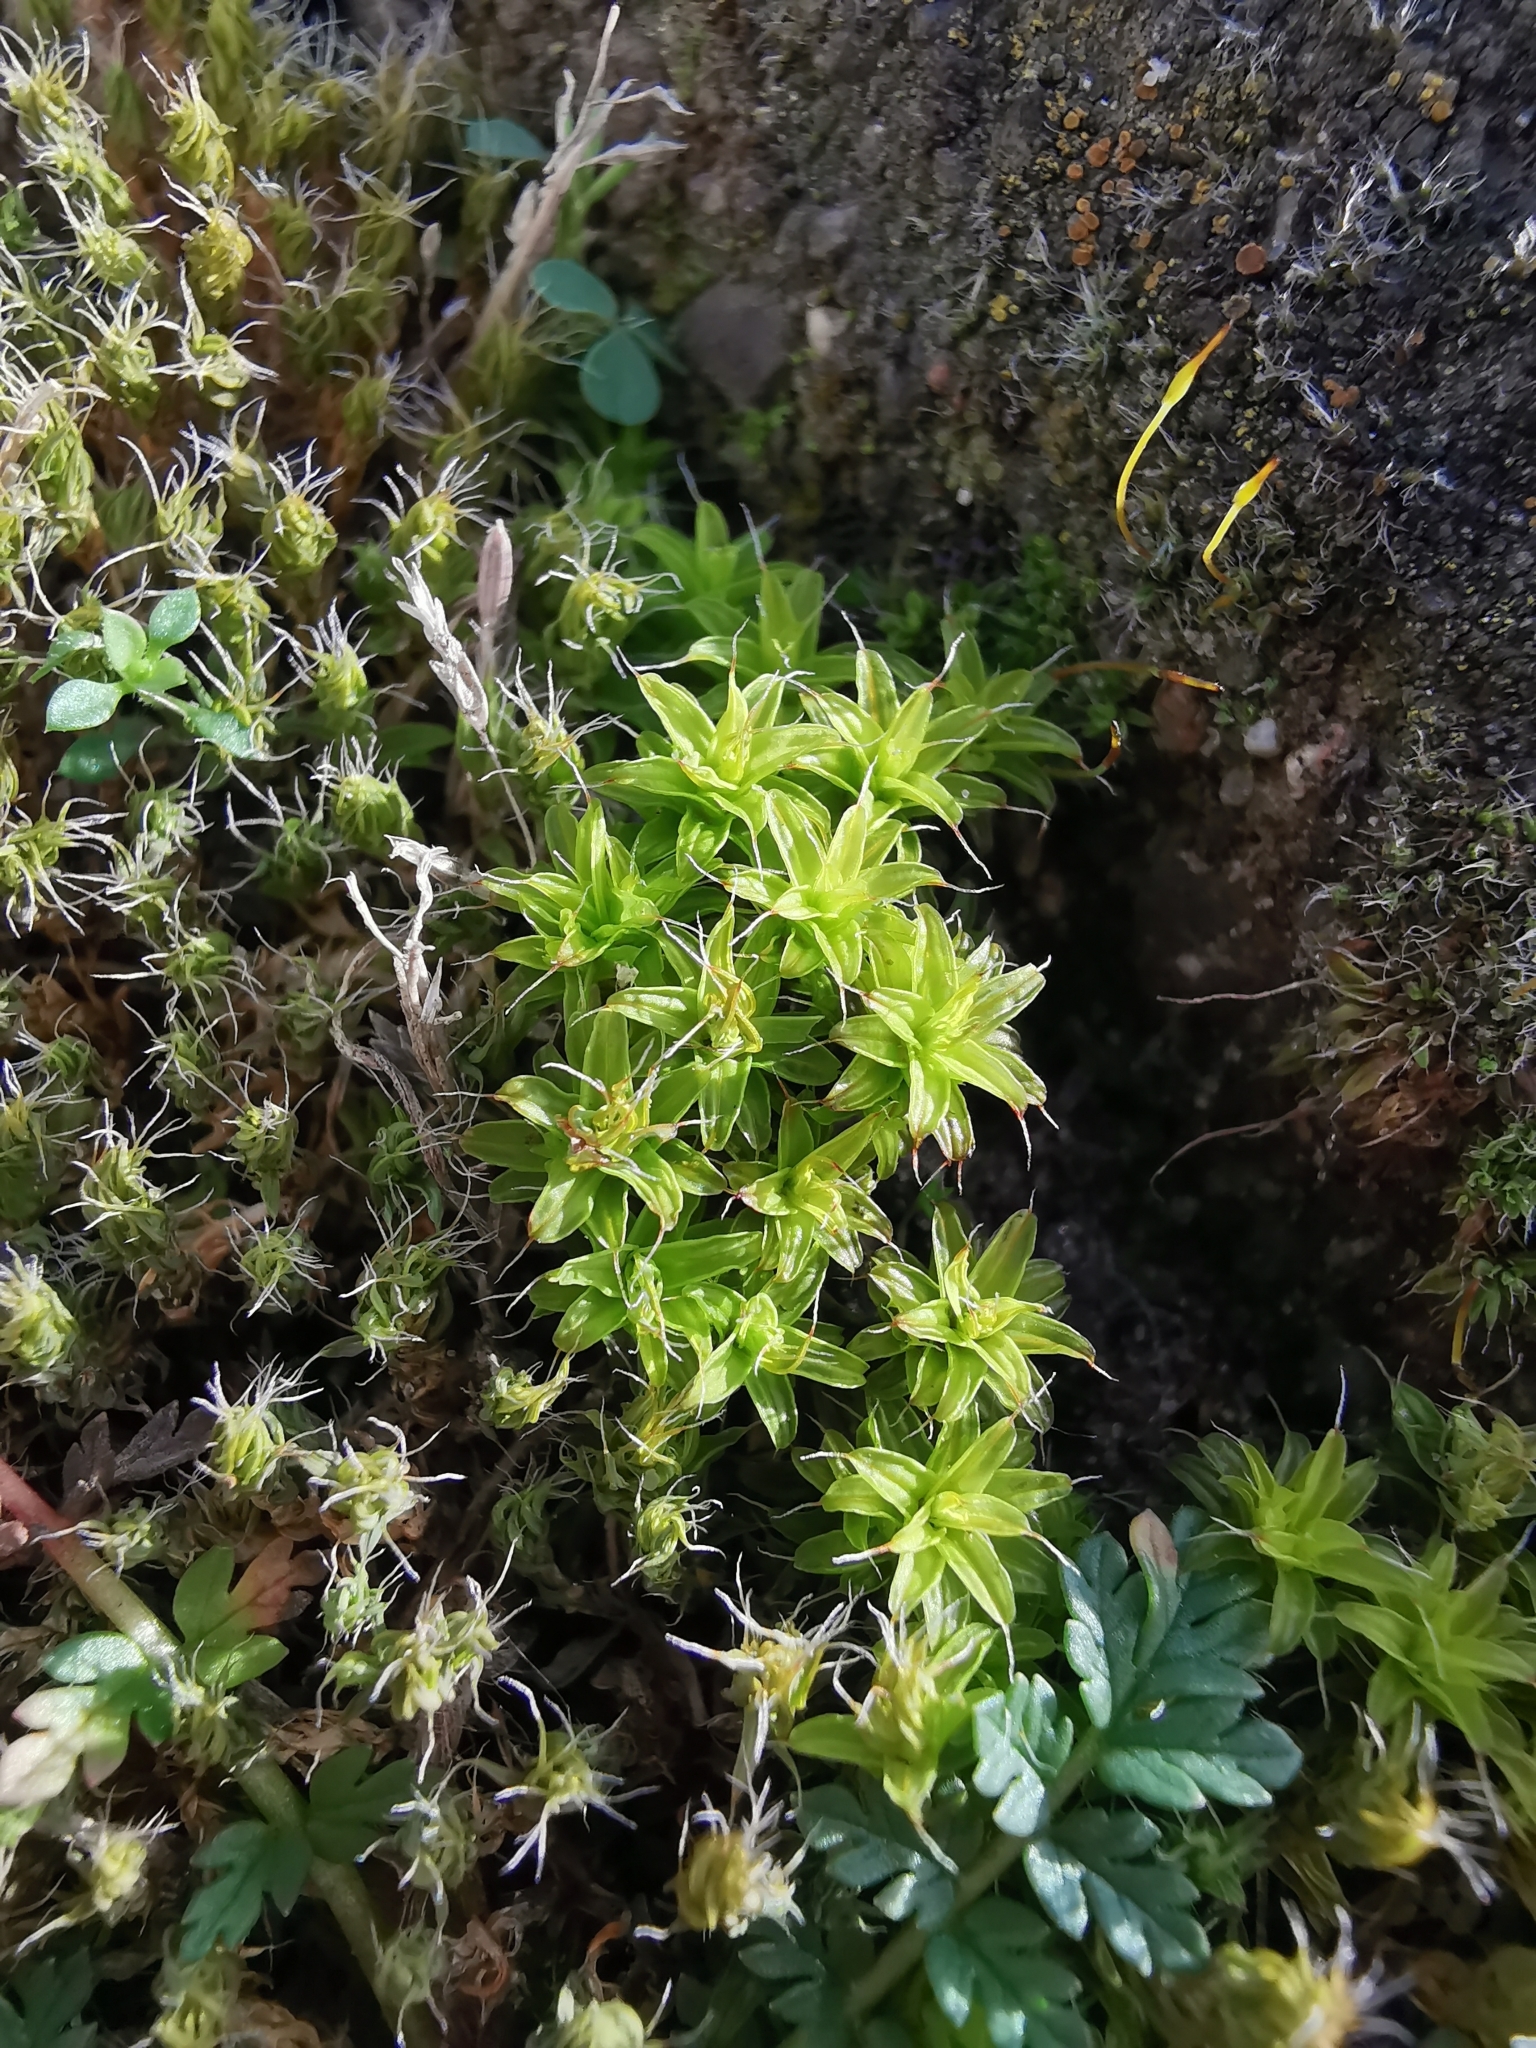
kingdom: Plantae
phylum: Bryophyta
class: Bryopsida
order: Pottiales
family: Pottiaceae
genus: Syntrichia
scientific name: Syntrichia ruralis
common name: Sidewalk screw moss
